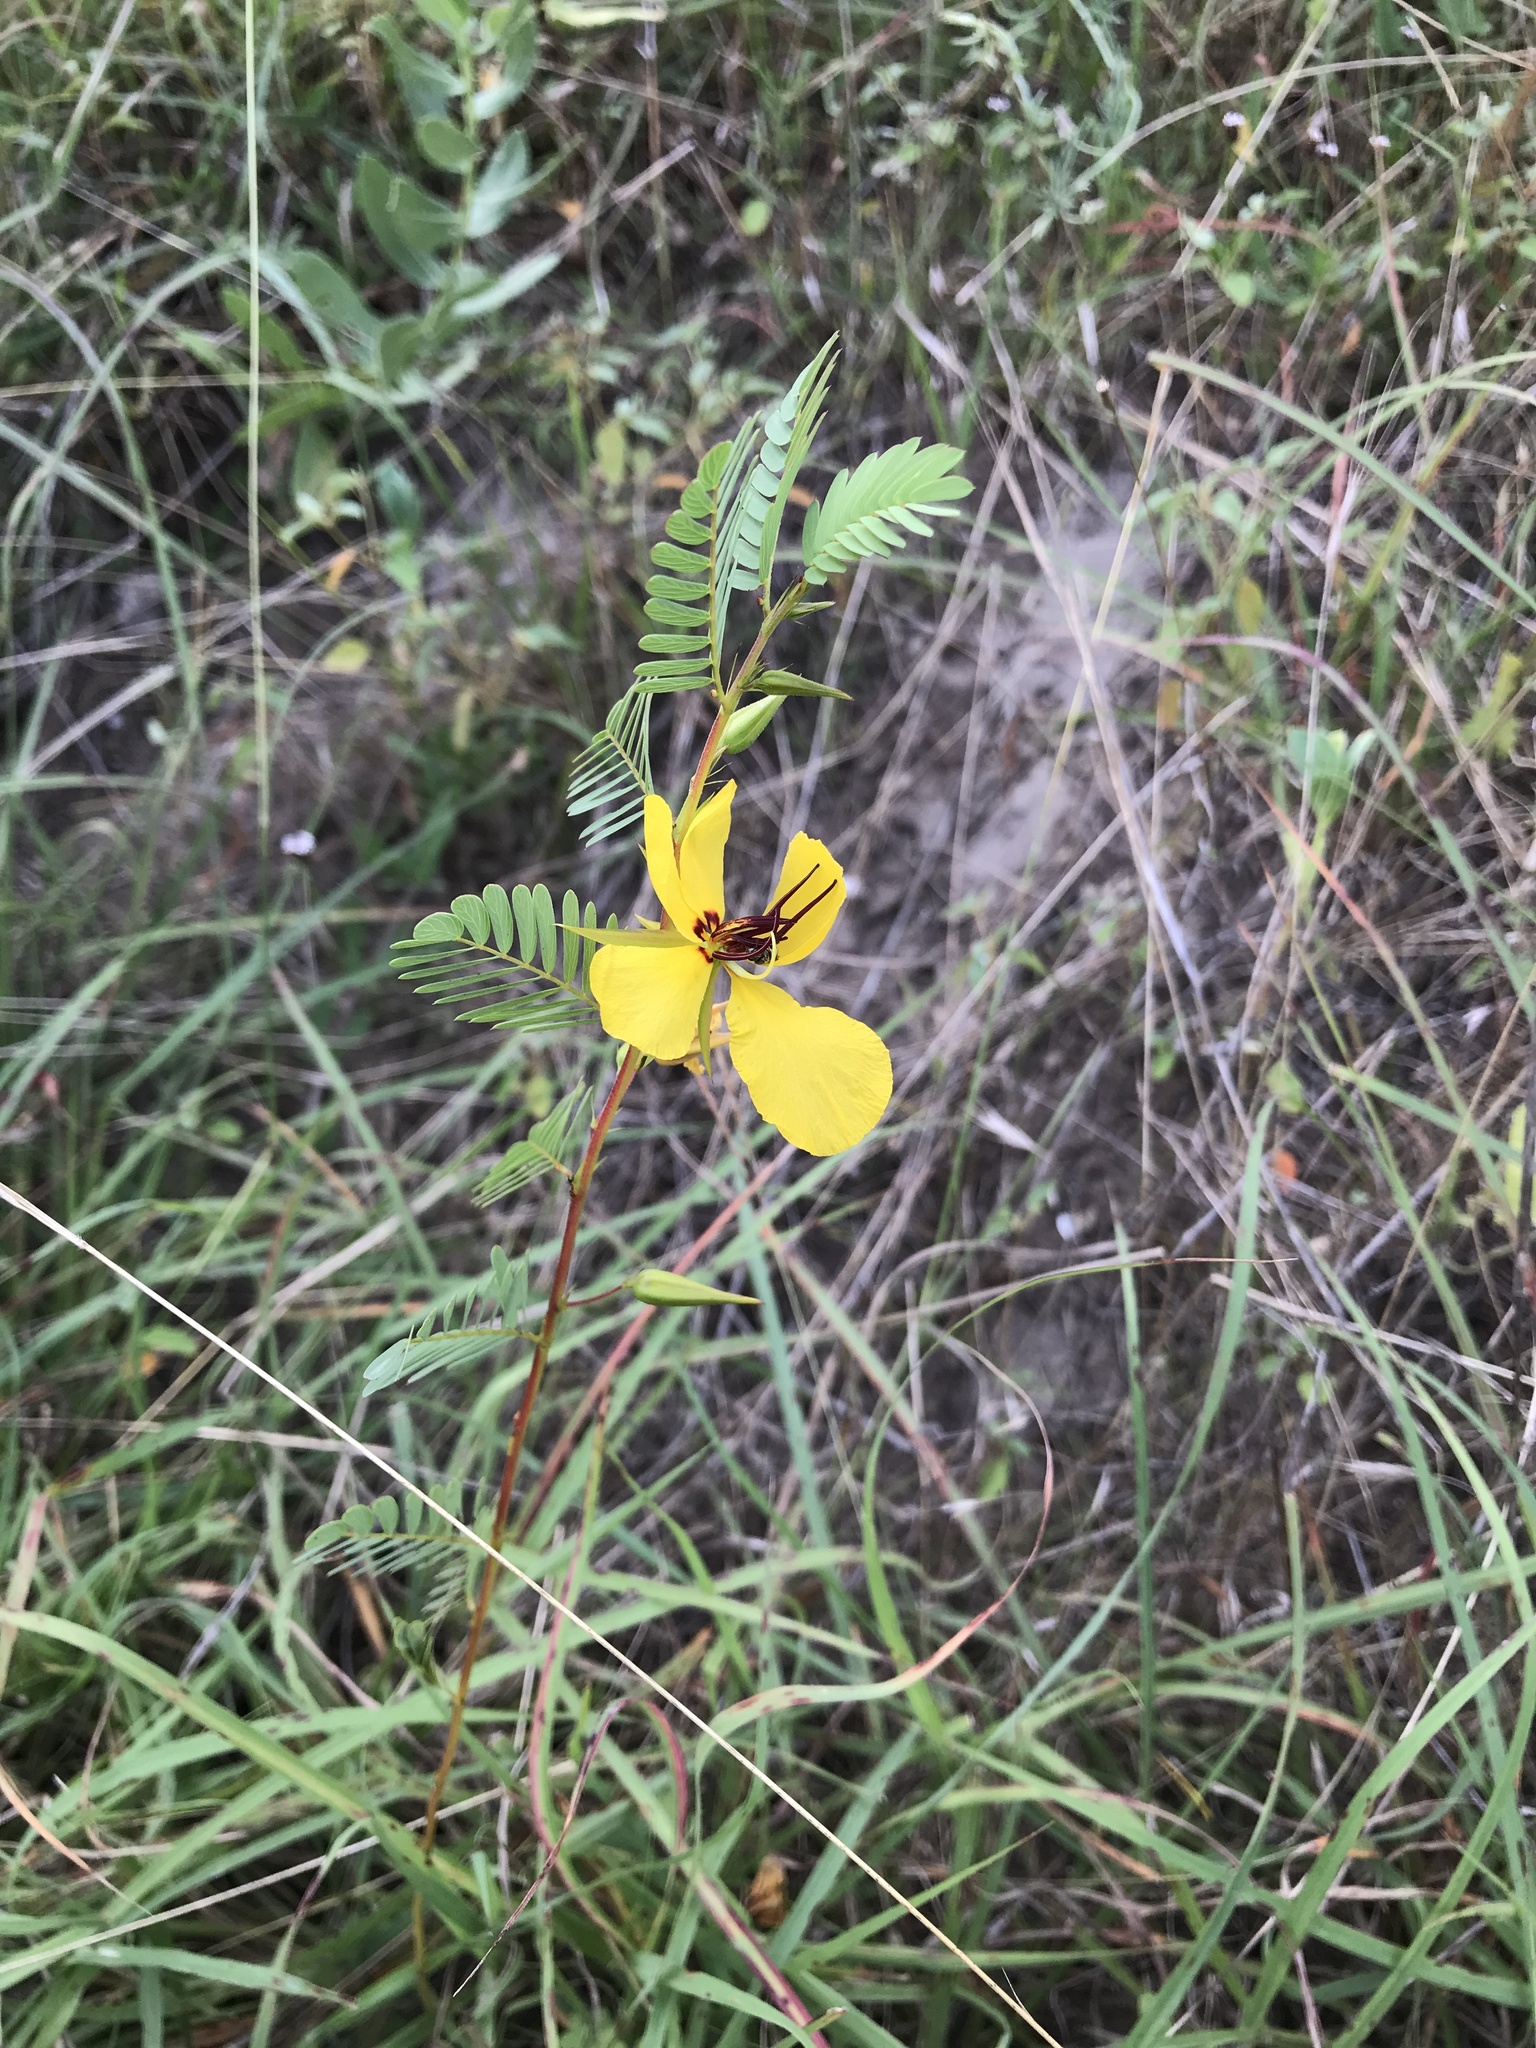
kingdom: Plantae
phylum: Tracheophyta
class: Magnoliopsida
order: Fabales
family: Fabaceae
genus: Chamaecrista
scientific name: Chamaecrista fasciculata
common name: Golden cassia
